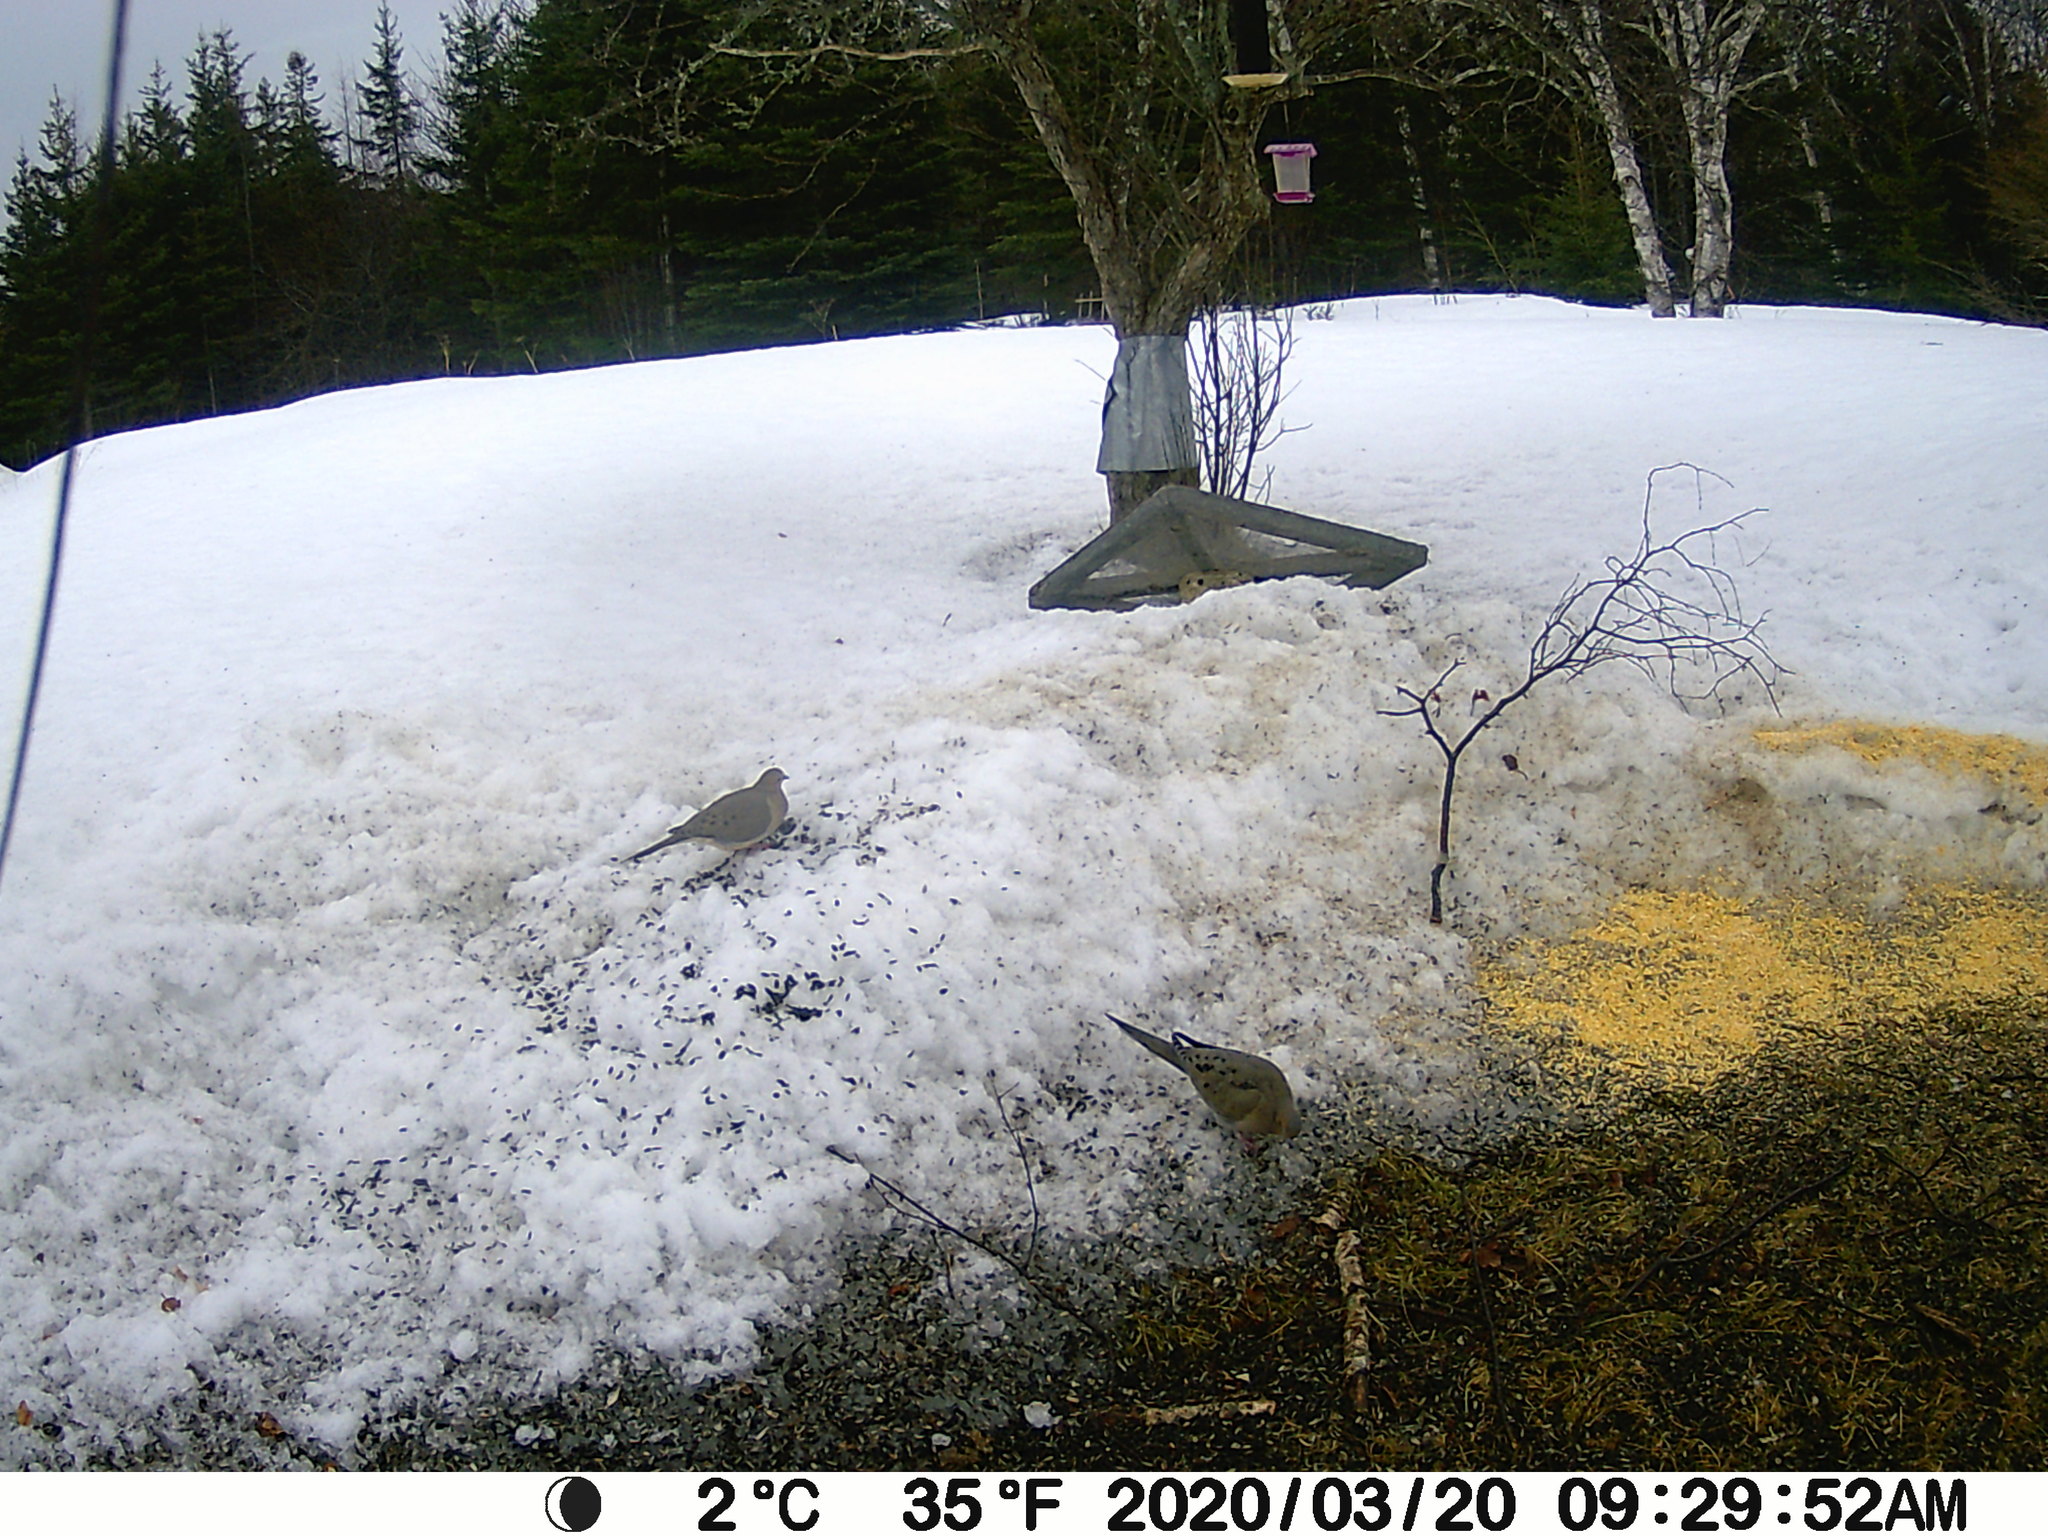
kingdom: Animalia
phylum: Chordata
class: Aves
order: Columbiformes
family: Columbidae
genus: Zenaida
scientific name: Zenaida macroura
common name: Mourning dove
